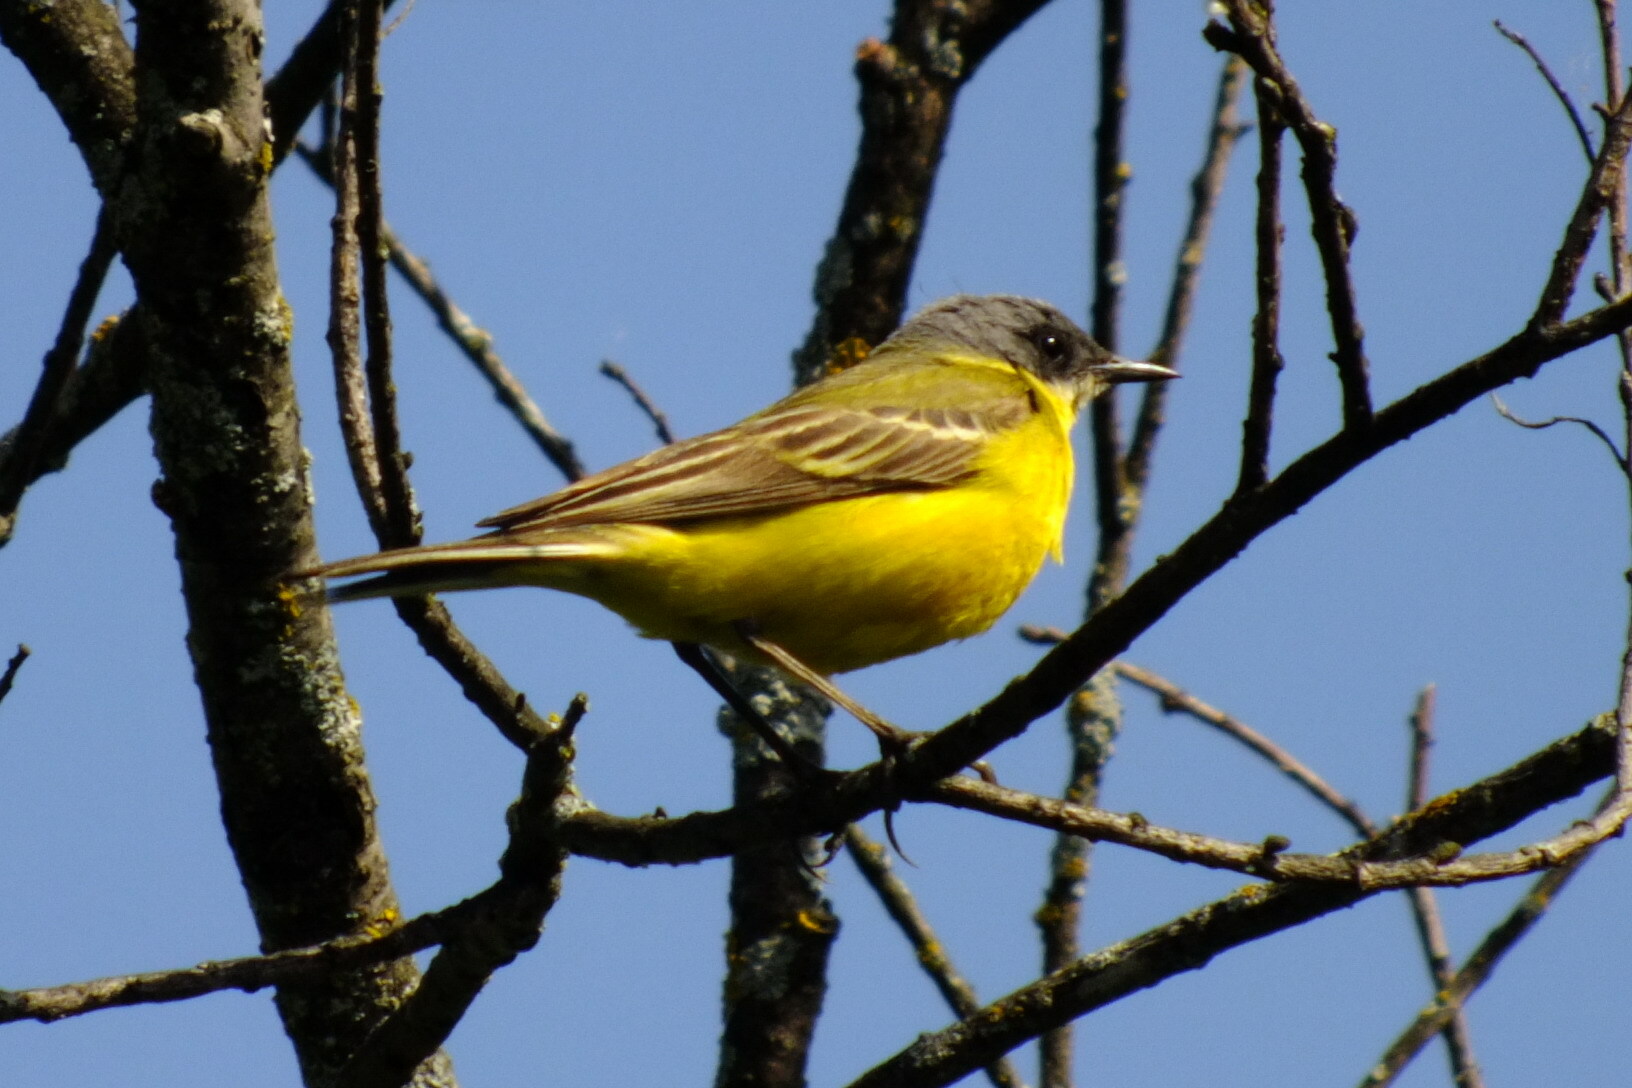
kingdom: Animalia
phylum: Chordata
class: Aves
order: Passeriformes
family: Motacillidae
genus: Motacilla
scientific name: Motacilla flava
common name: Western yellow wagtail
